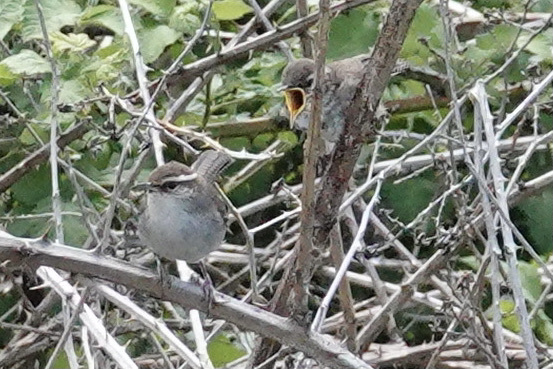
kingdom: Animalia
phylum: Chordata
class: Aves
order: Passeriformes
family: Troglodytidae
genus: Thryomanes
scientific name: Thryomanes bewickii
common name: Bewick's wren
